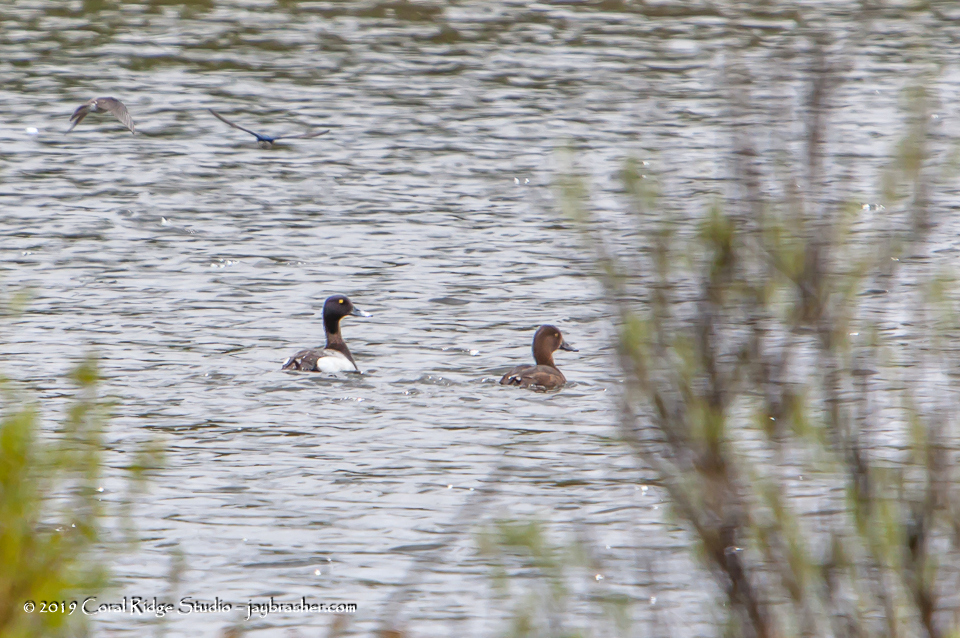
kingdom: Animalia
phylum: Chordata
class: Aves
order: Anseriformes
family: Anatidae
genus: Aythya
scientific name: Aythya affinis
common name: Lesser scaup
